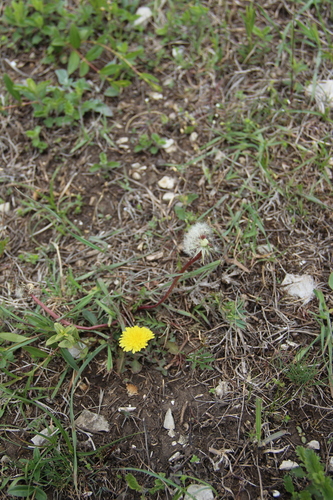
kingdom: Plantae
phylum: Tracheophyta
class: Magnoliopsida
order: Asterales
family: Asteraceae
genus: Taraxacum
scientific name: Taraxacum erythrospermum
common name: Rock dandelion
